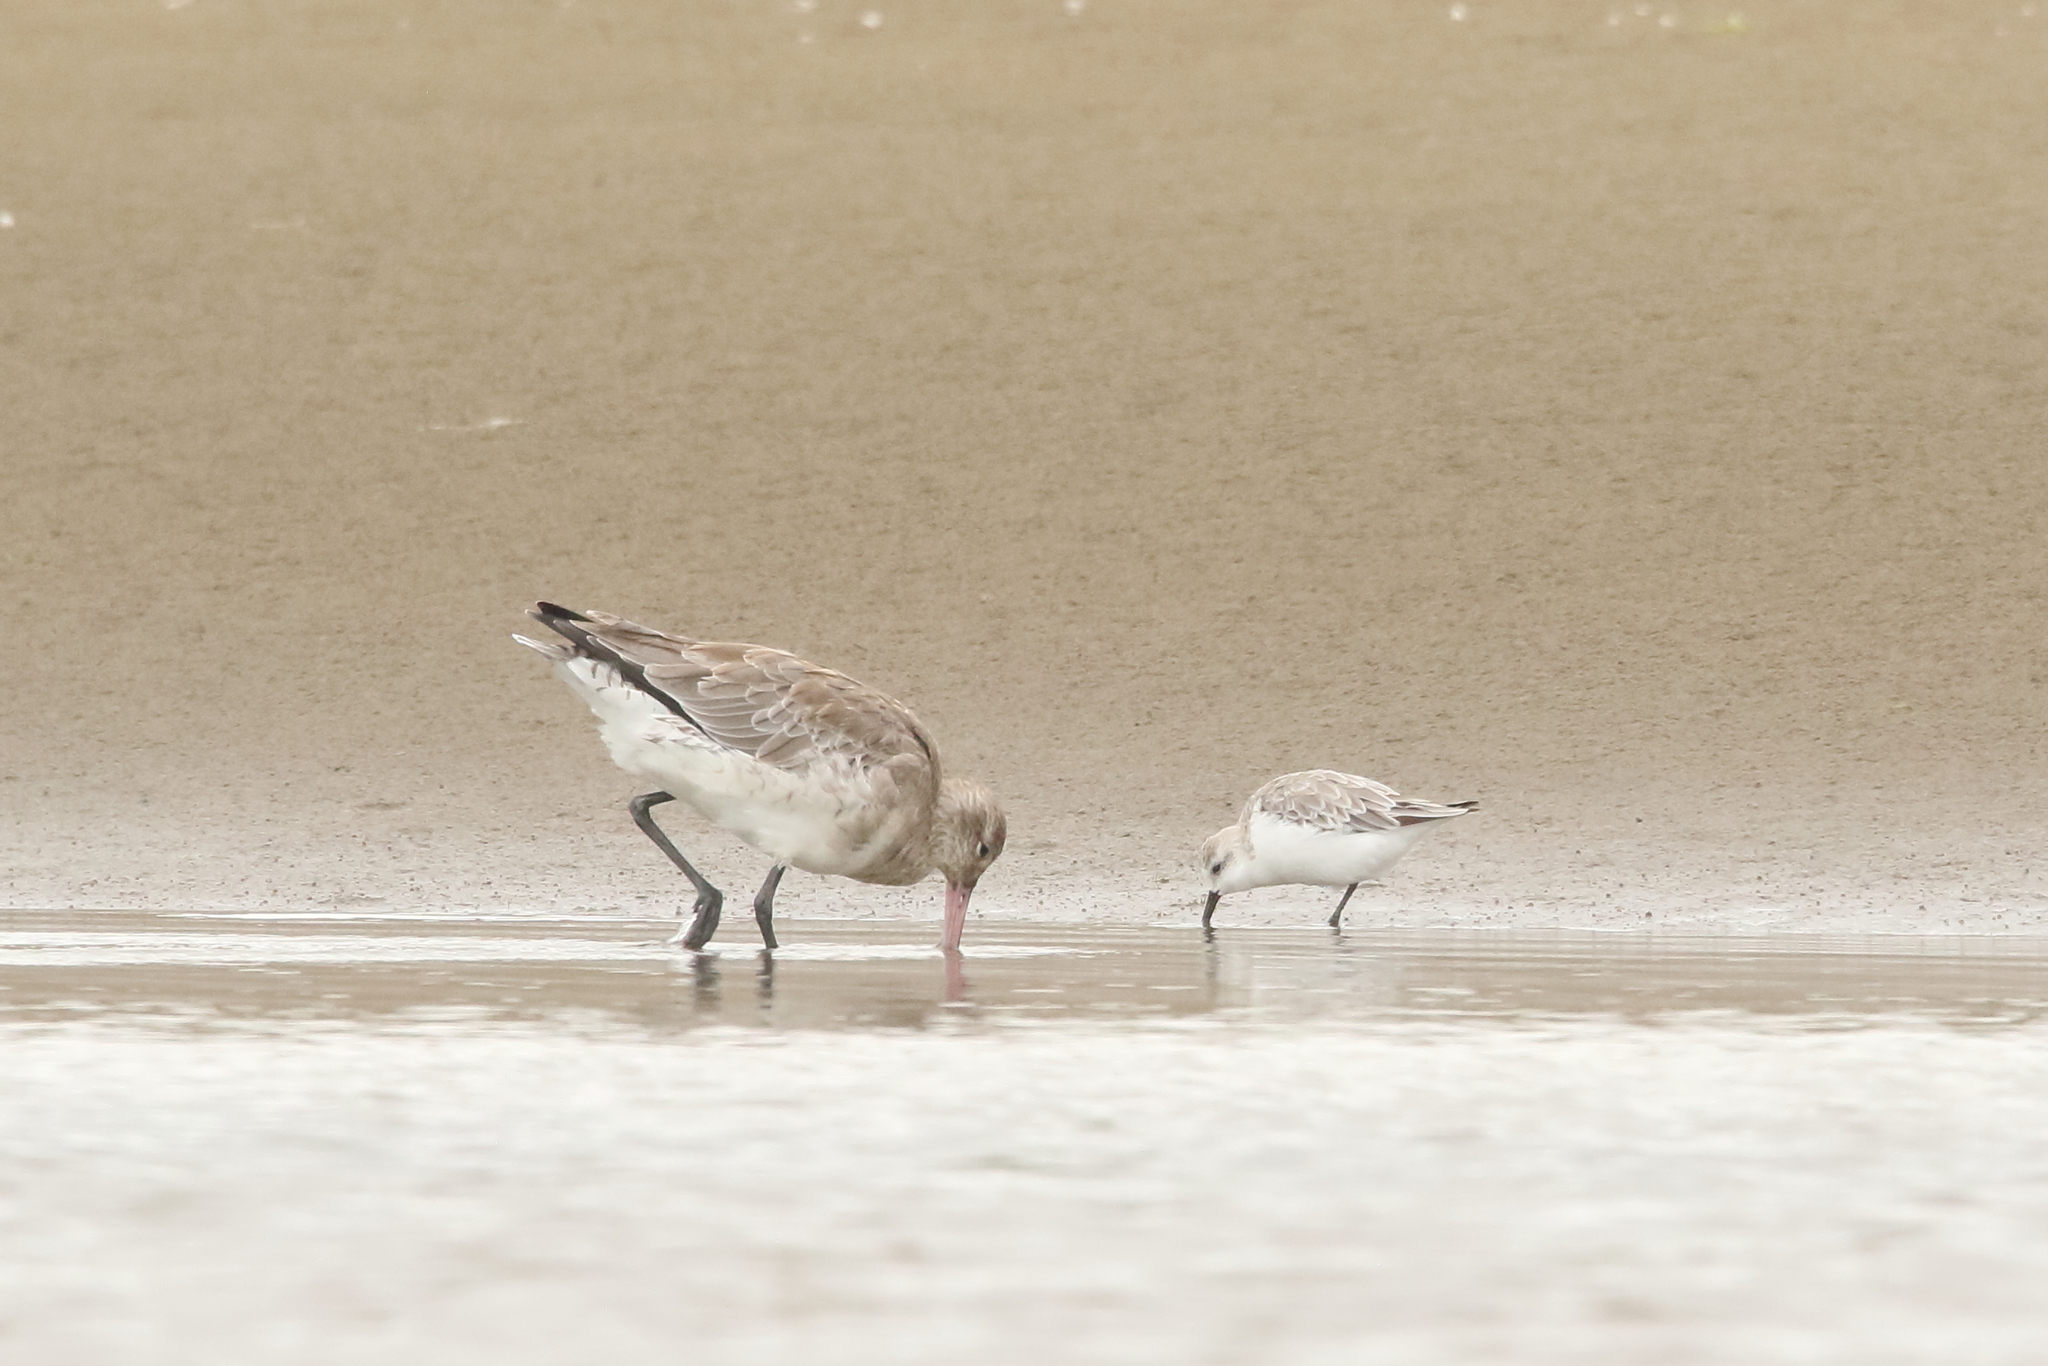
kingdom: Animalia
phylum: Chordata
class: Aves
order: Charadriiformes
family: Scolopacidae
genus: Calidris
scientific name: Calidris alba
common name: Sanderling
